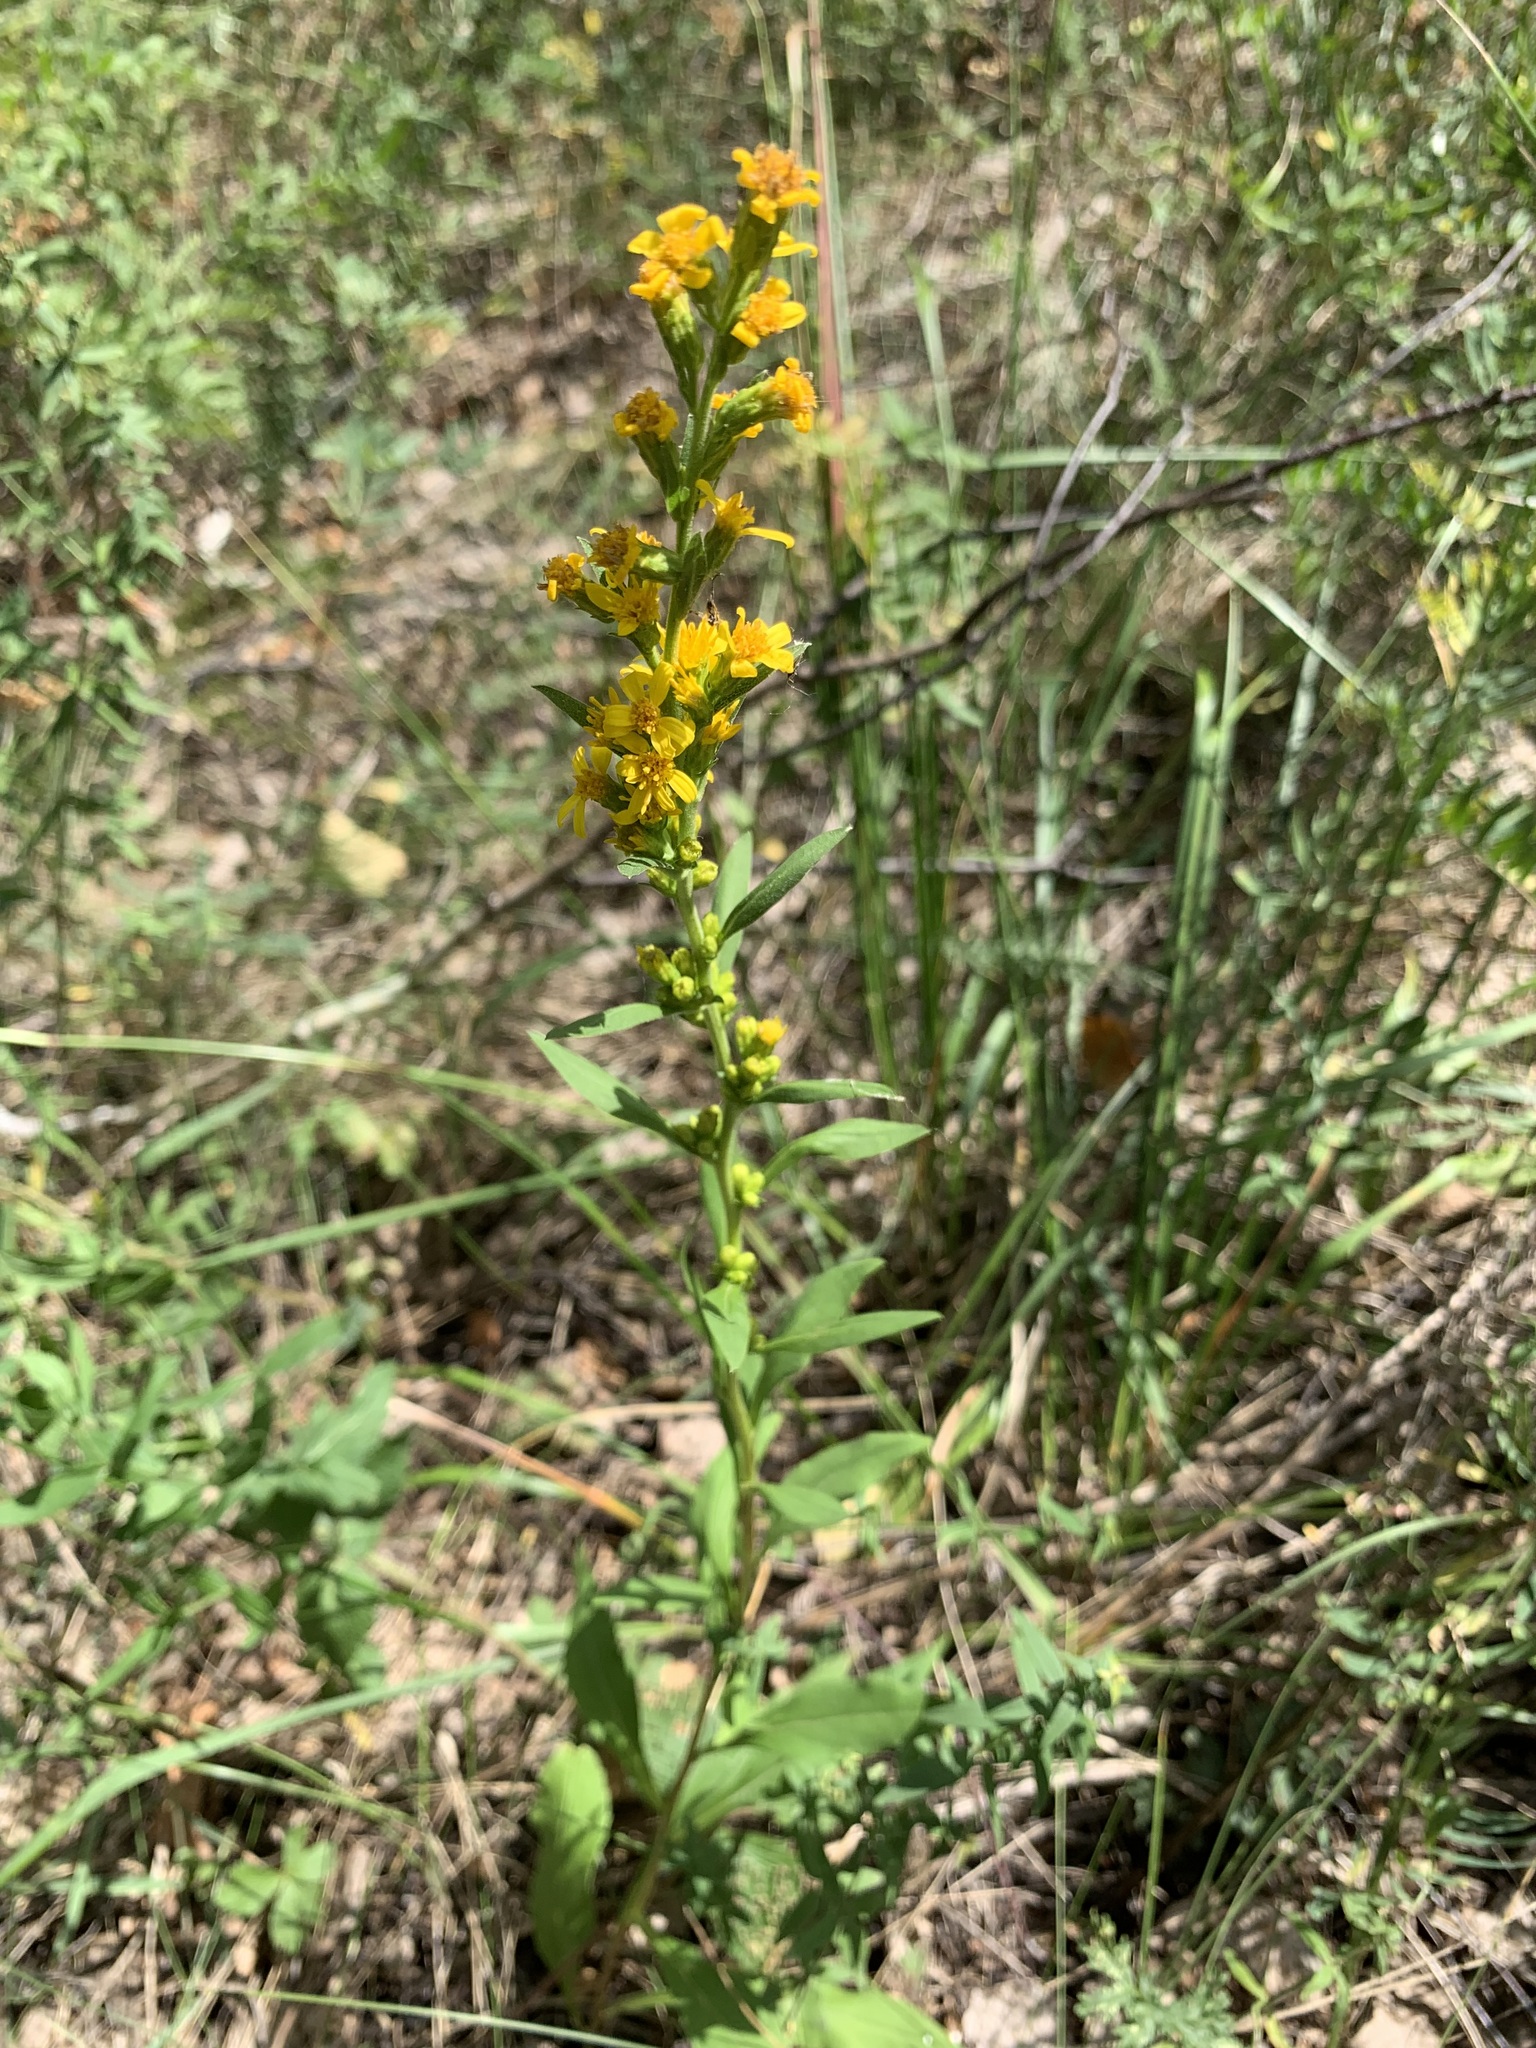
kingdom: Plantae
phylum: Tracheophyta
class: Magnoliopsida
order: Asterales
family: Asteraceae
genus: Solidago
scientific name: Solidago virgaurea
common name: Goldenrod
